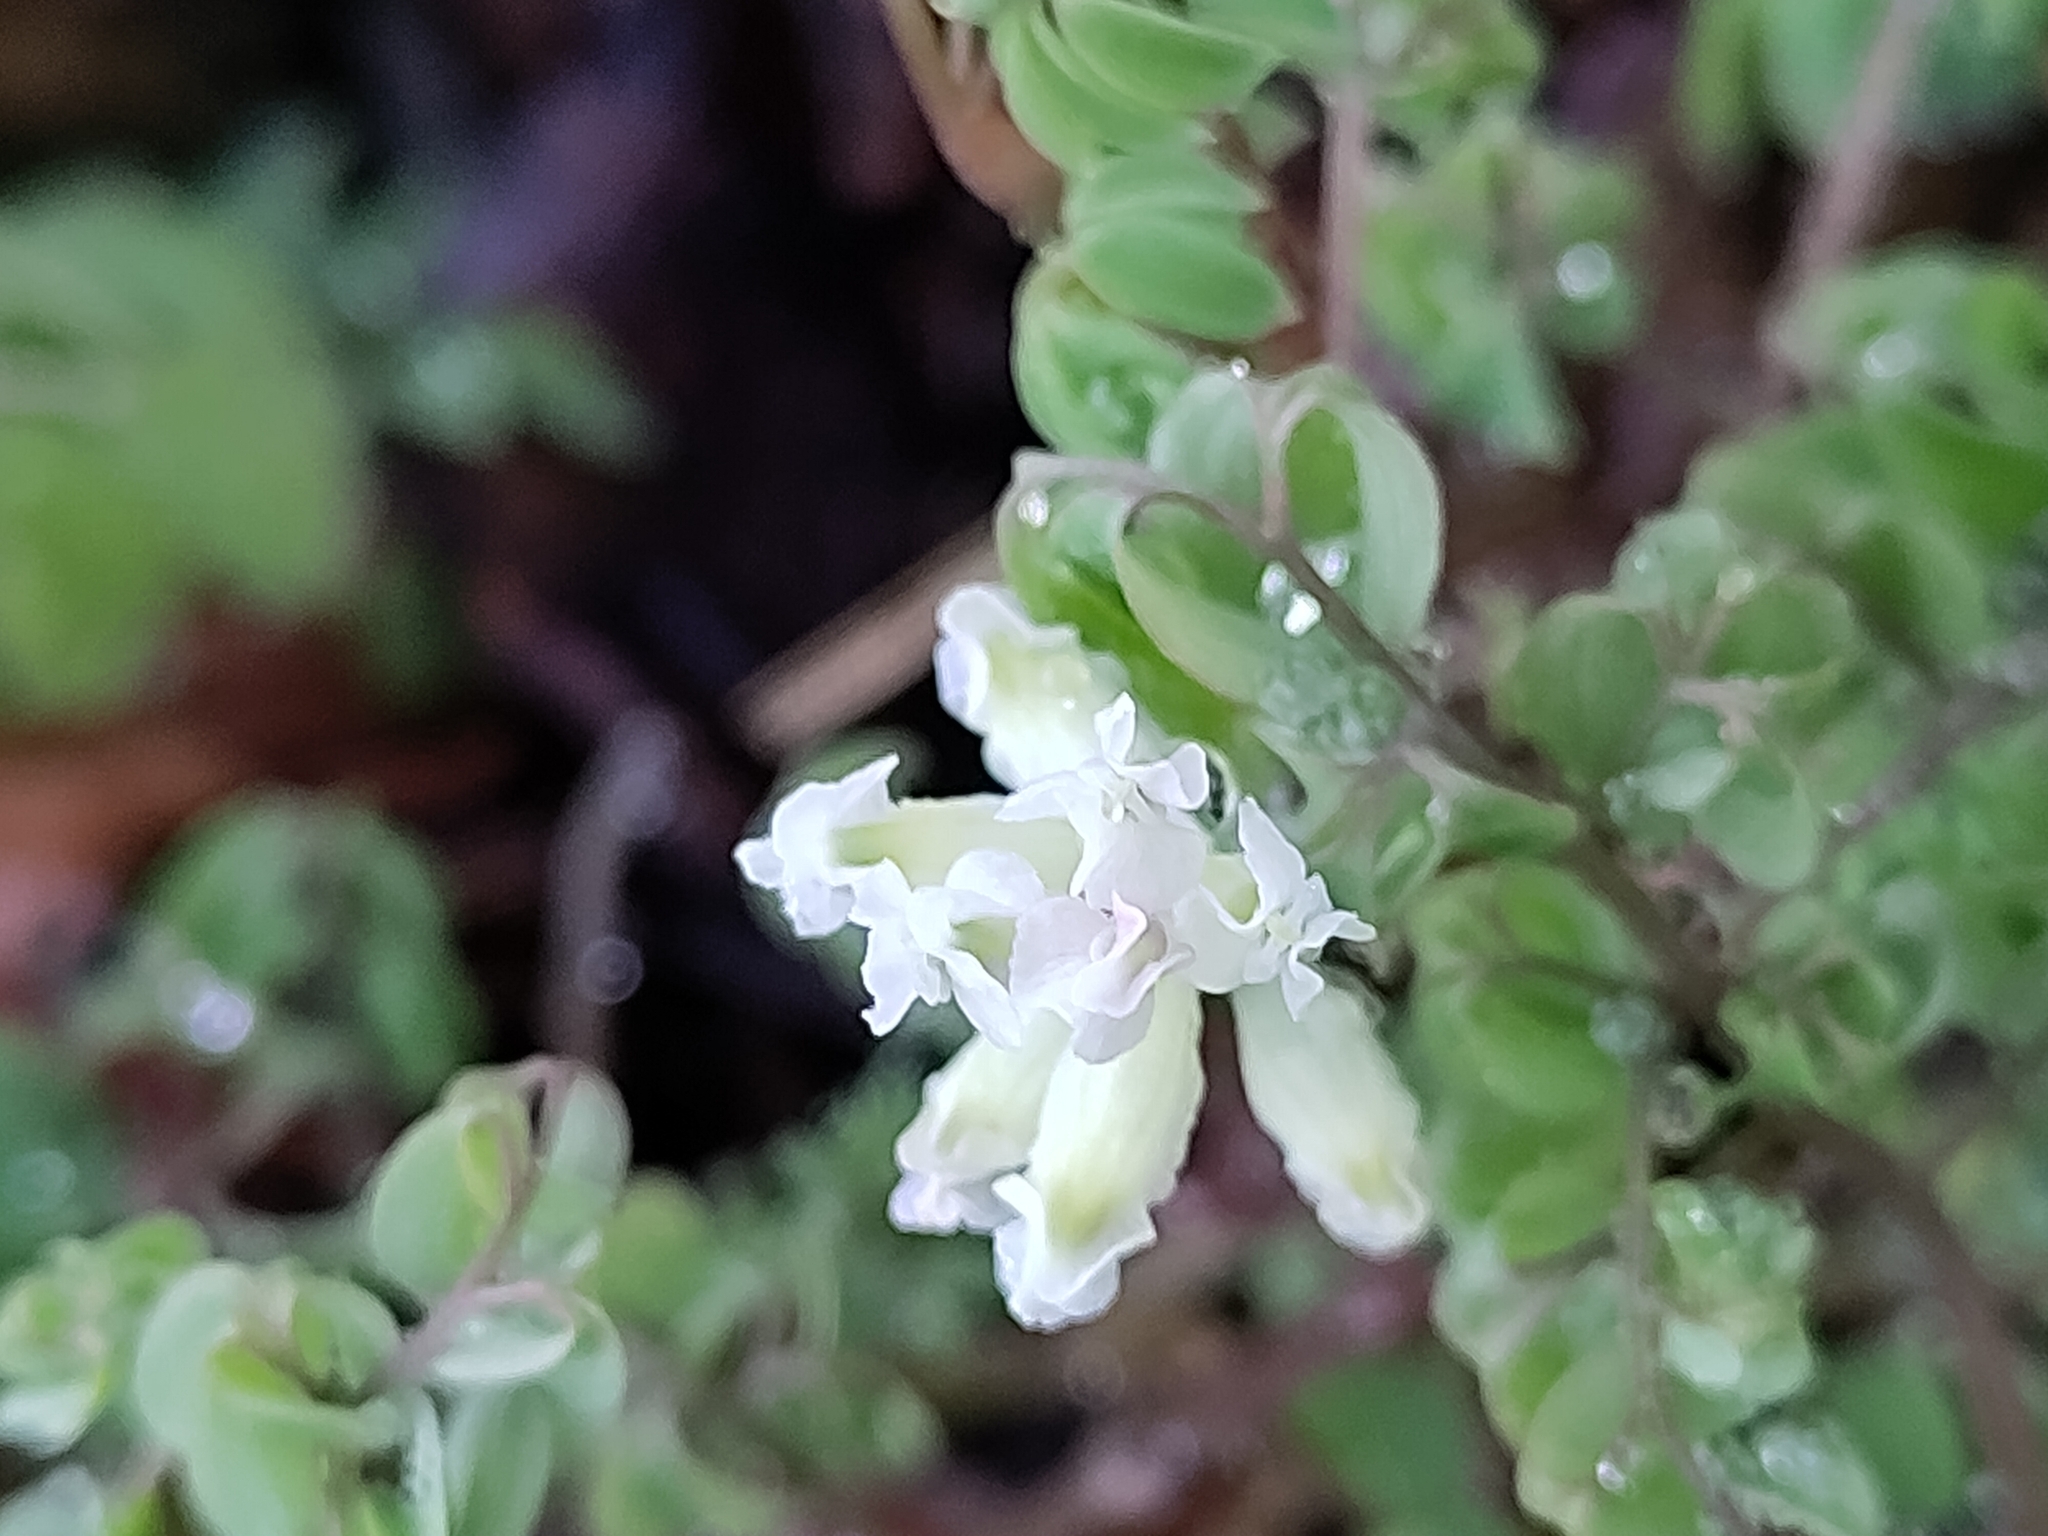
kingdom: Plantae
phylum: Tracheophyta
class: Magnoliopsida
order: Ranunculales
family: Papaveraceae
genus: Ceratocapnos
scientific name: Ceratocapnos claviculata
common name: Climbing corydalis
